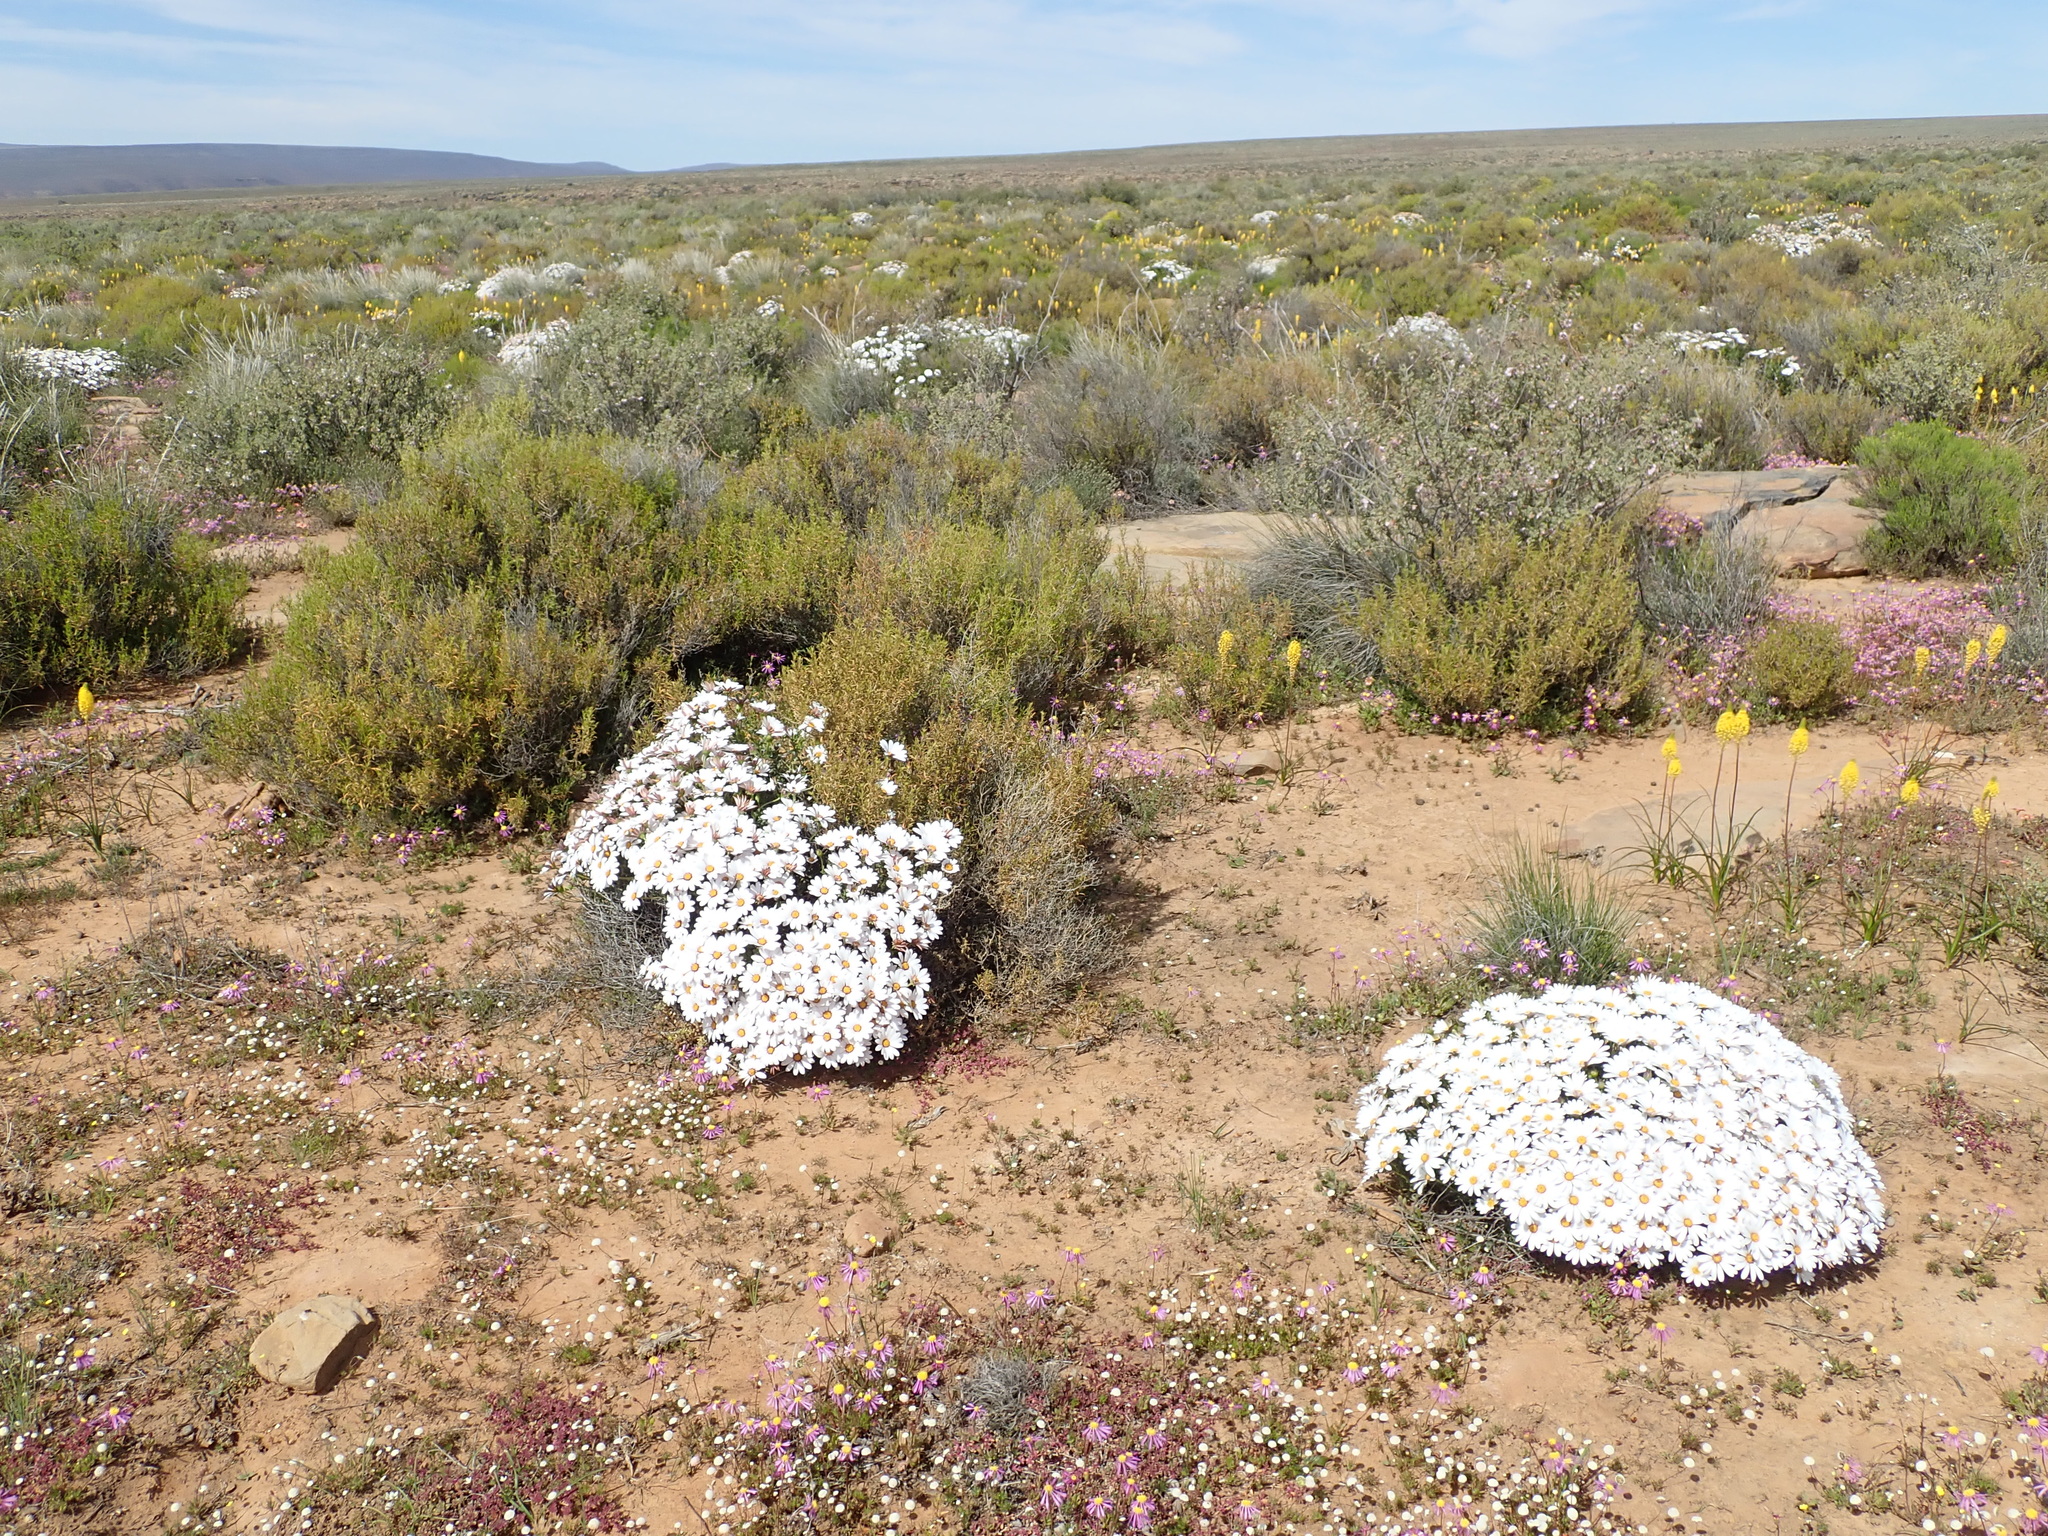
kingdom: Plantae
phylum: Tracheophyta
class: Magnoliopsida
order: Asterales
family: Asteraceae
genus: Dimorphotheca
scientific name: Dimorphotheca cuneata
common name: Daisy
